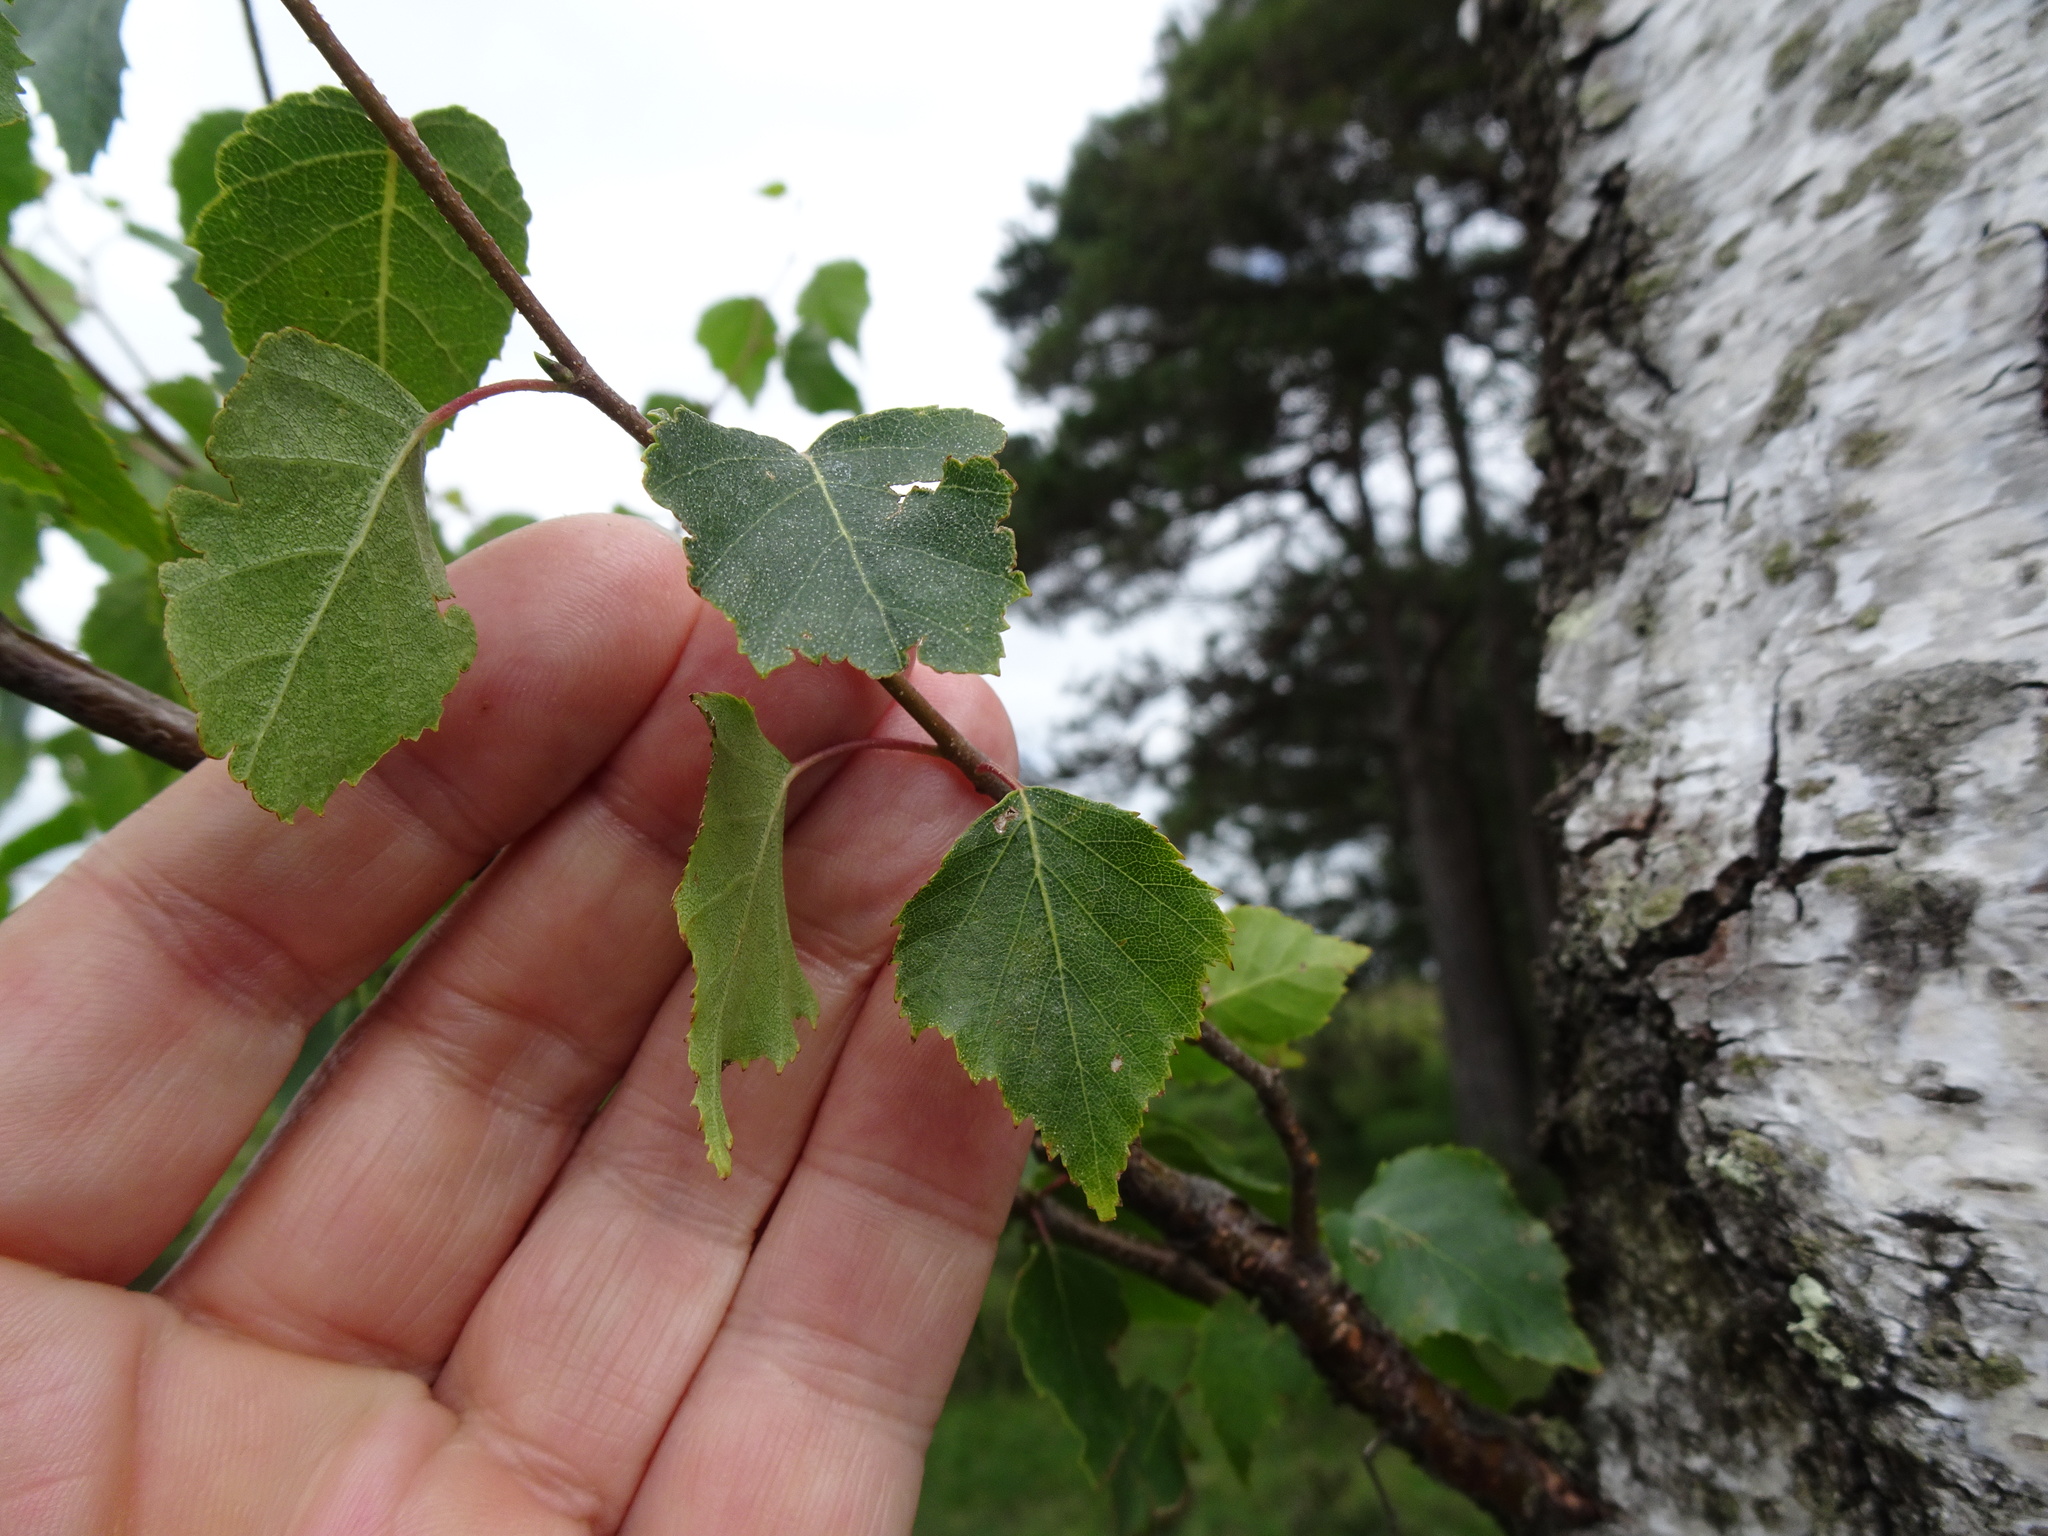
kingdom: Plantae
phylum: Tracheophyta
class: Magnoliopsida
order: Fagales
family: Betulaceae
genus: Betula
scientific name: Betula pendula
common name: Silver birch
